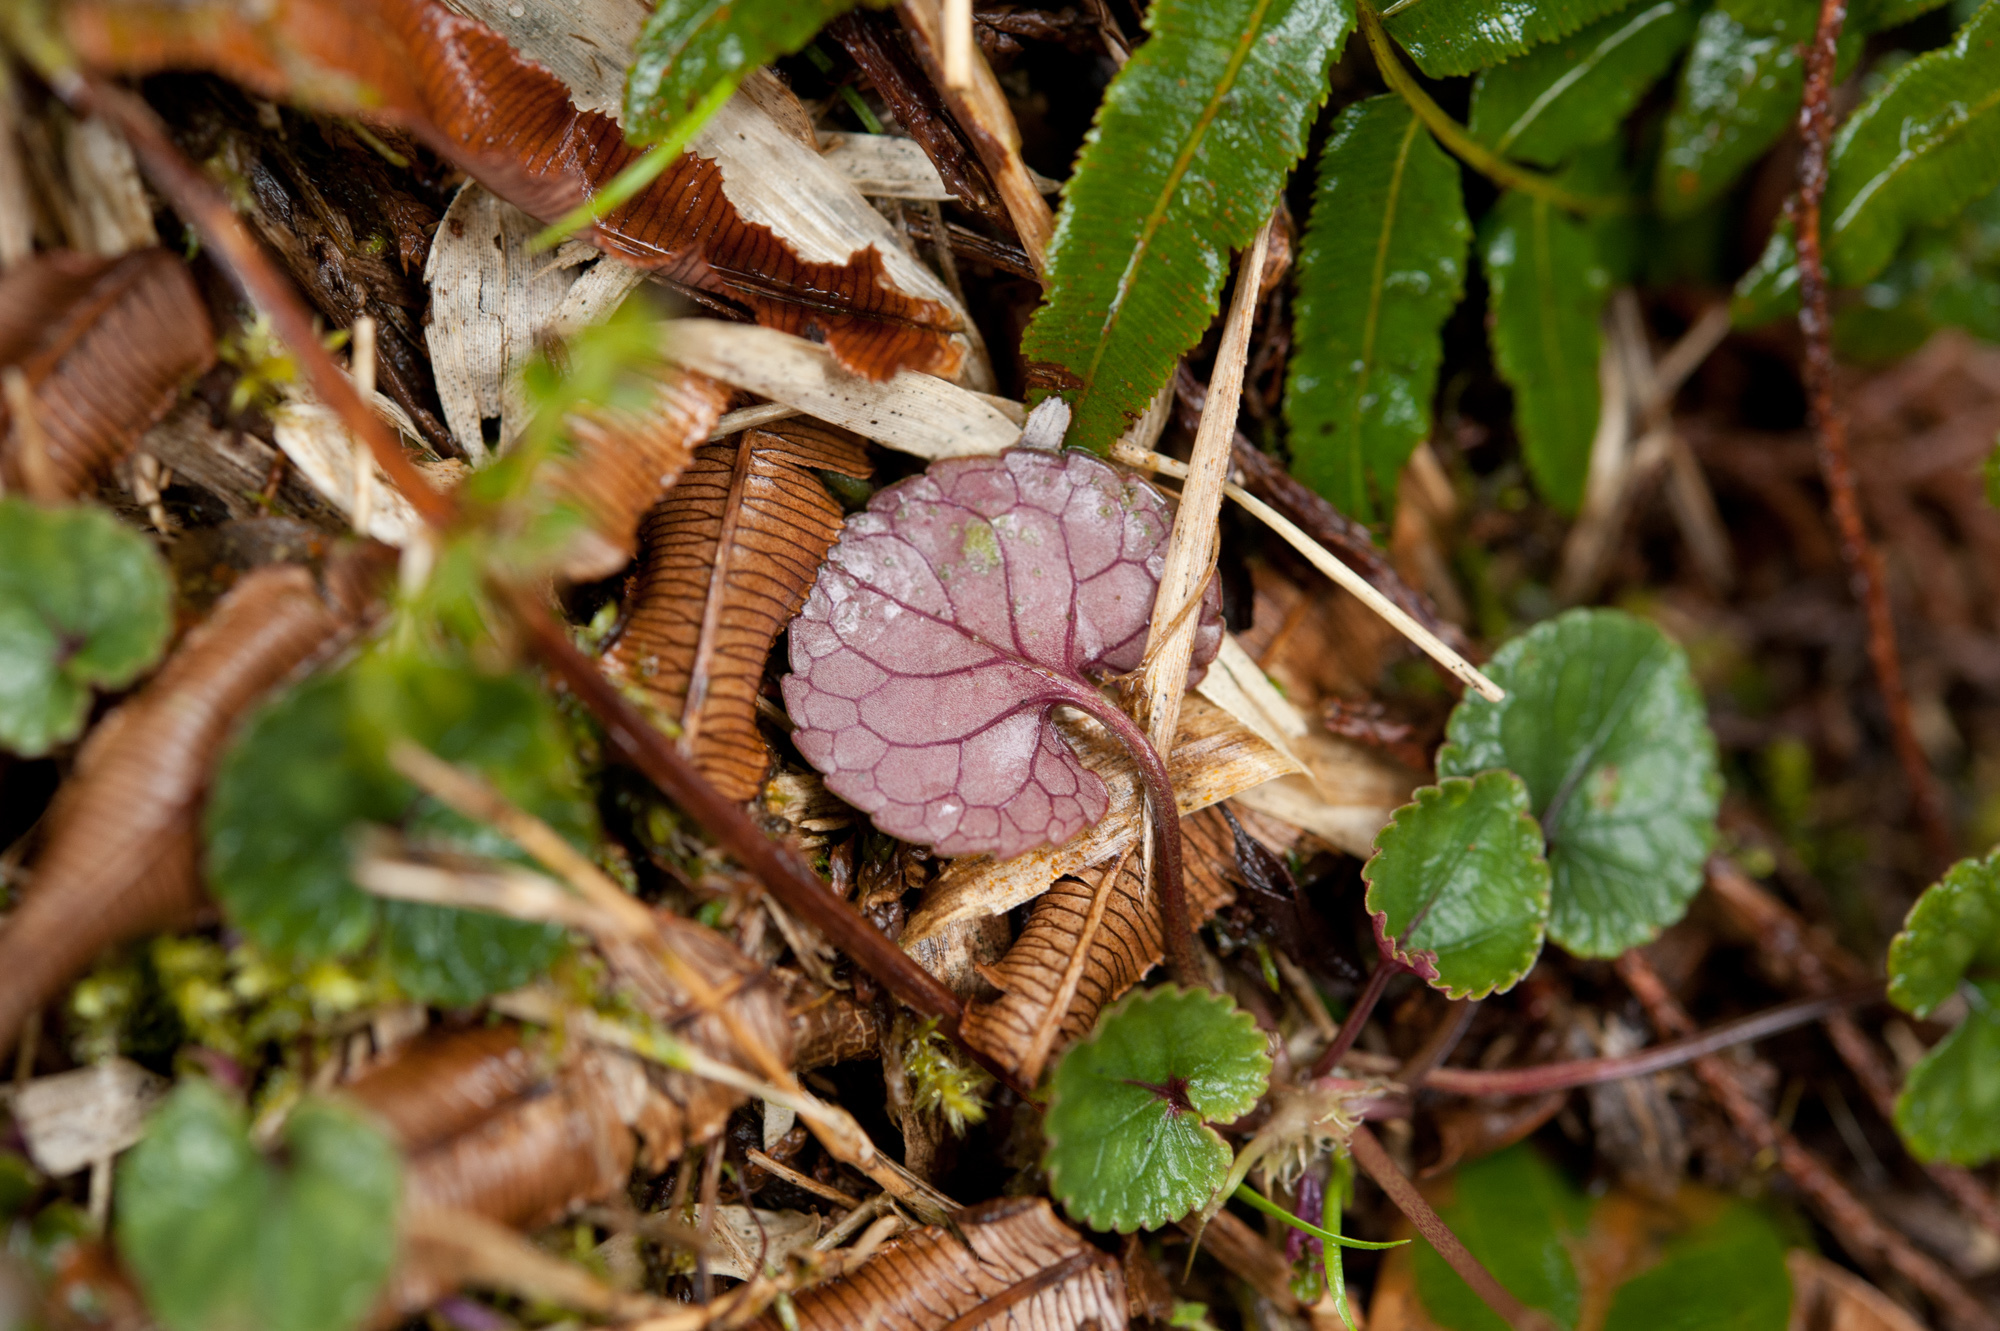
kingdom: Plantae
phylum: Tracheophyta
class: Magnoliopsida
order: Malpighiales
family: Violaceae
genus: Viola
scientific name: Viola formosana
